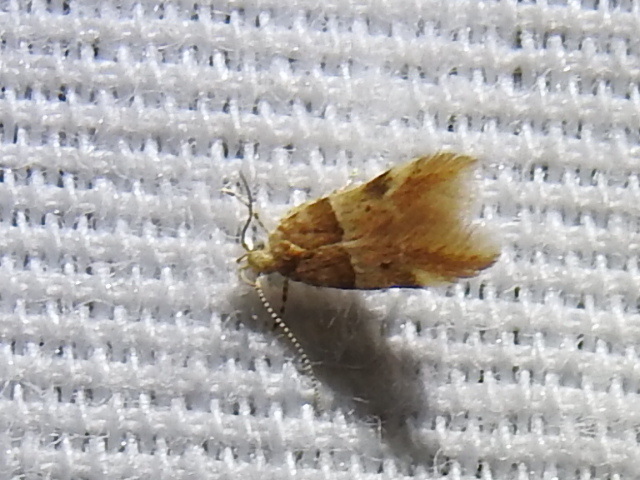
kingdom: Animalia
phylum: Arthropoda
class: Insecta
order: Lepidoptera
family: Gelechiidae
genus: Theisoa
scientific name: Theisoa constrictella
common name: Constricted twirler
